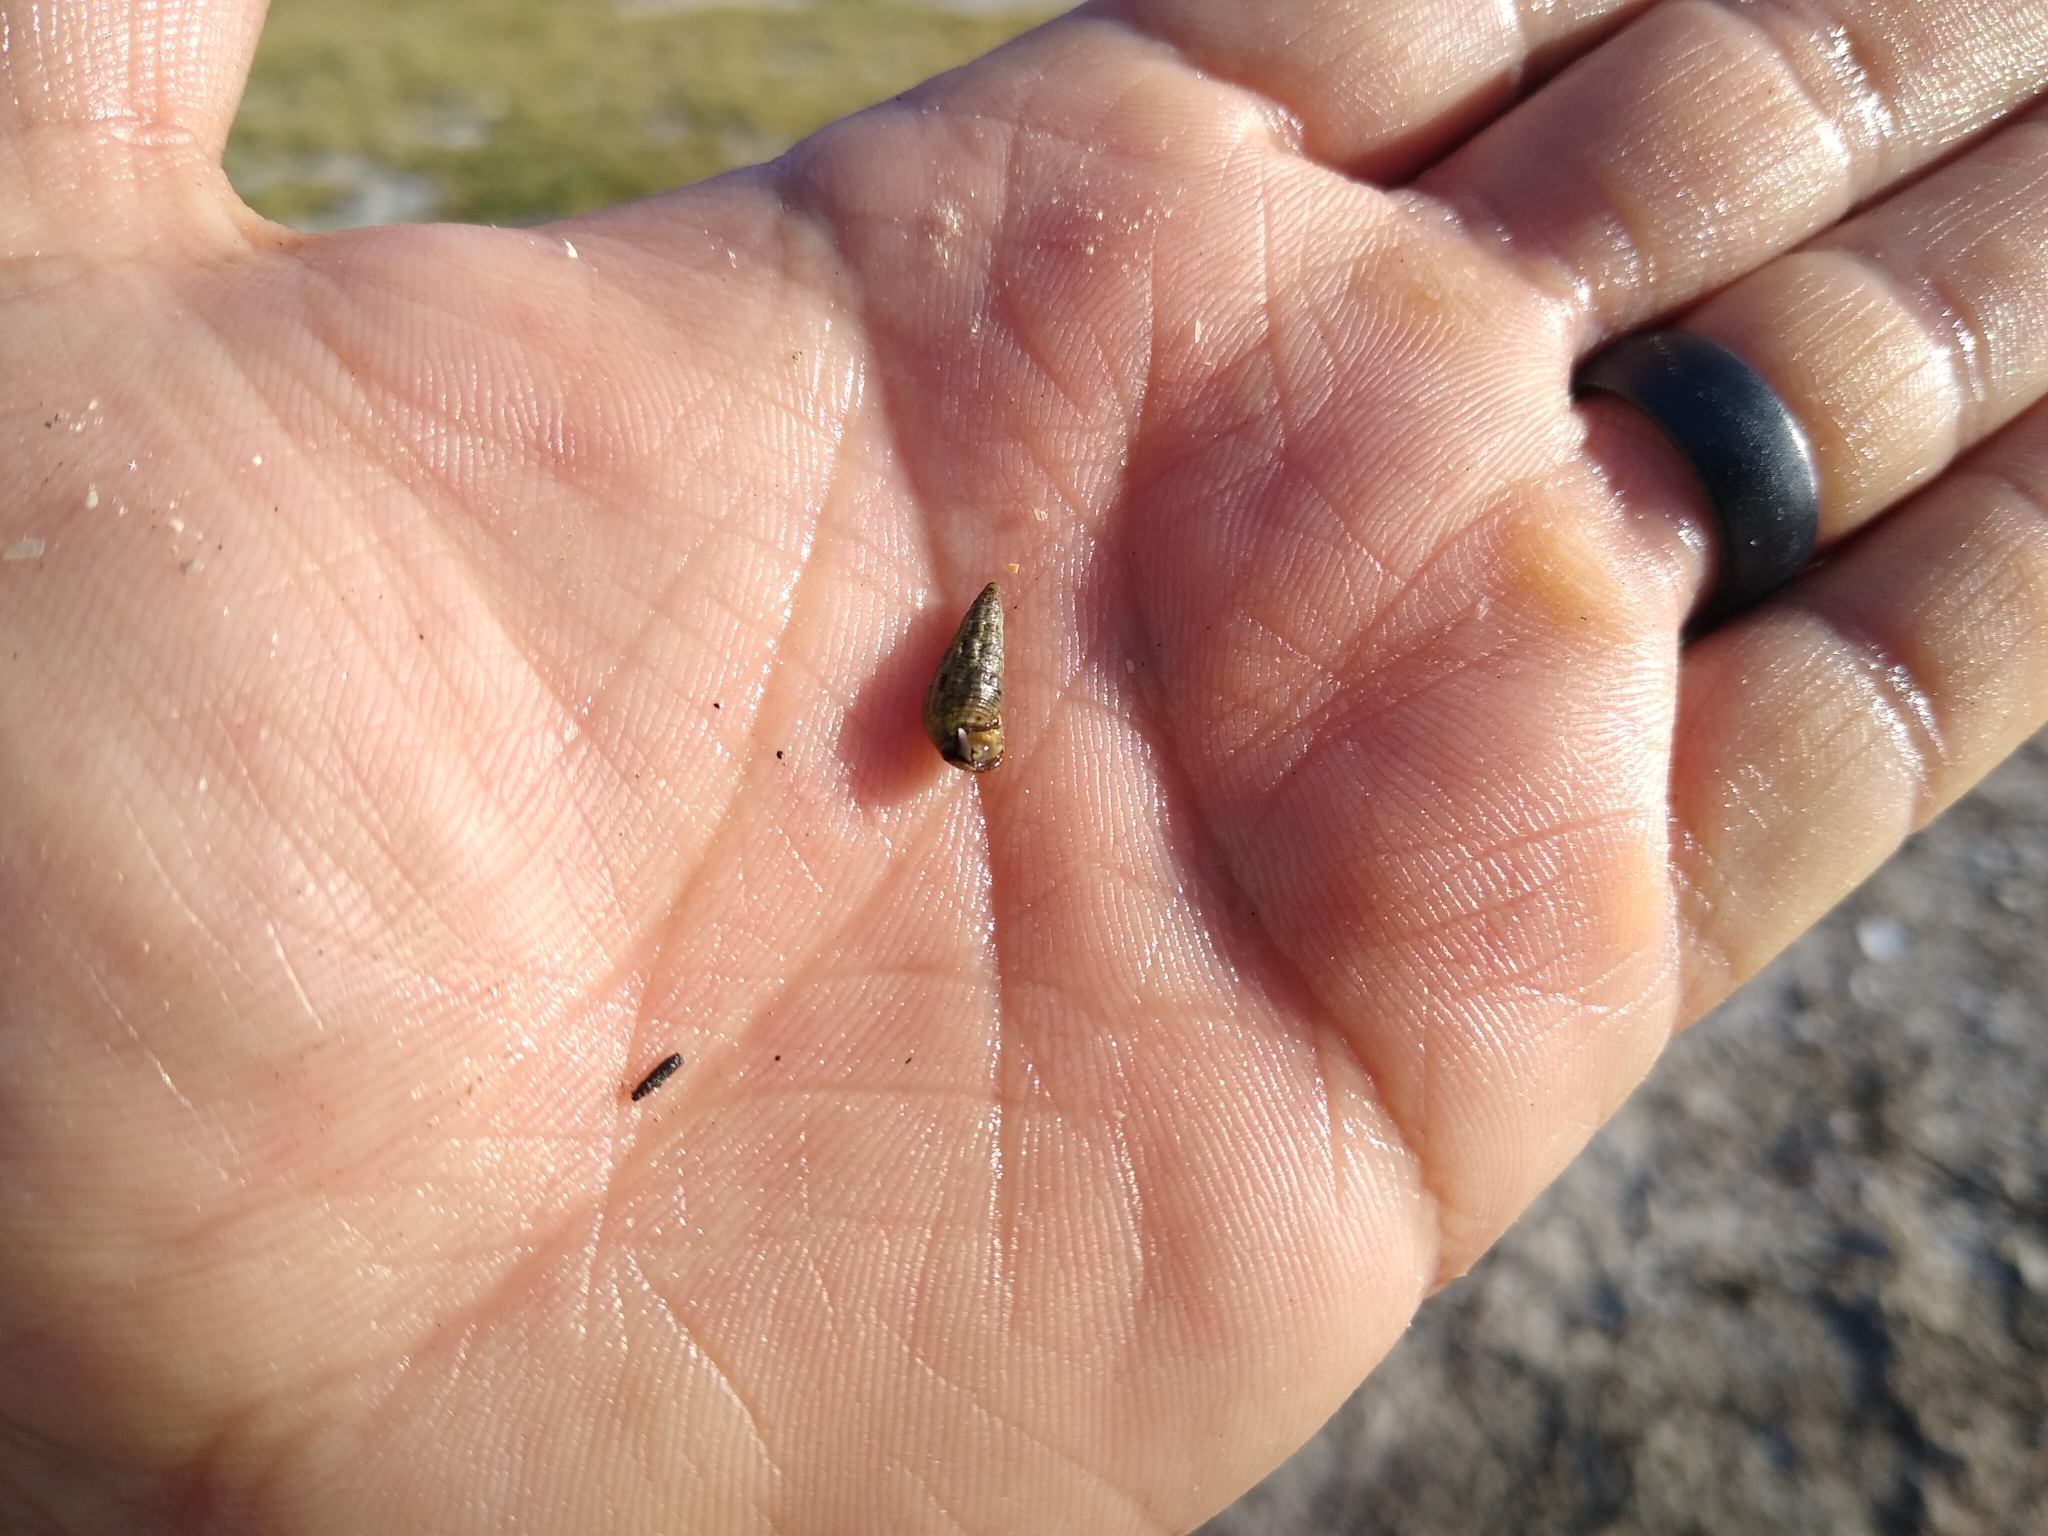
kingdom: Animalia
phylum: Mollusca
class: Gastropoda
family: Batillariidae
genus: Lampanella
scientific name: Lampanella minima
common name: West indian false cerith
